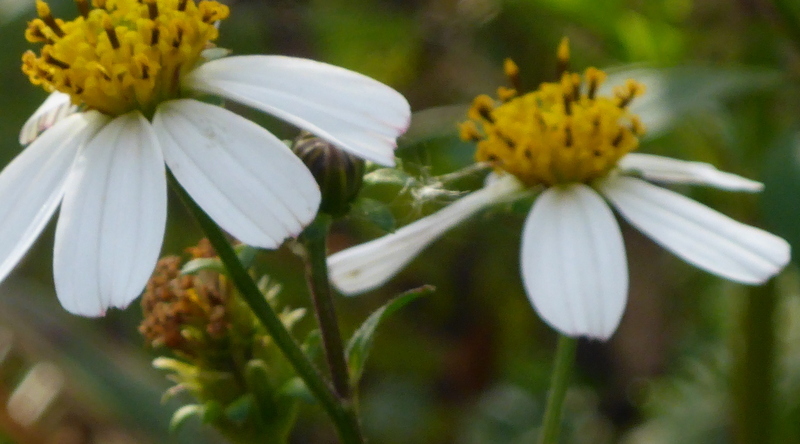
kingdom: Plantae
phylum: Tracheophyta
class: Magnoliopsida
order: Asterales
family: Asteraceae
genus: Bidens
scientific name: Bidens alba
